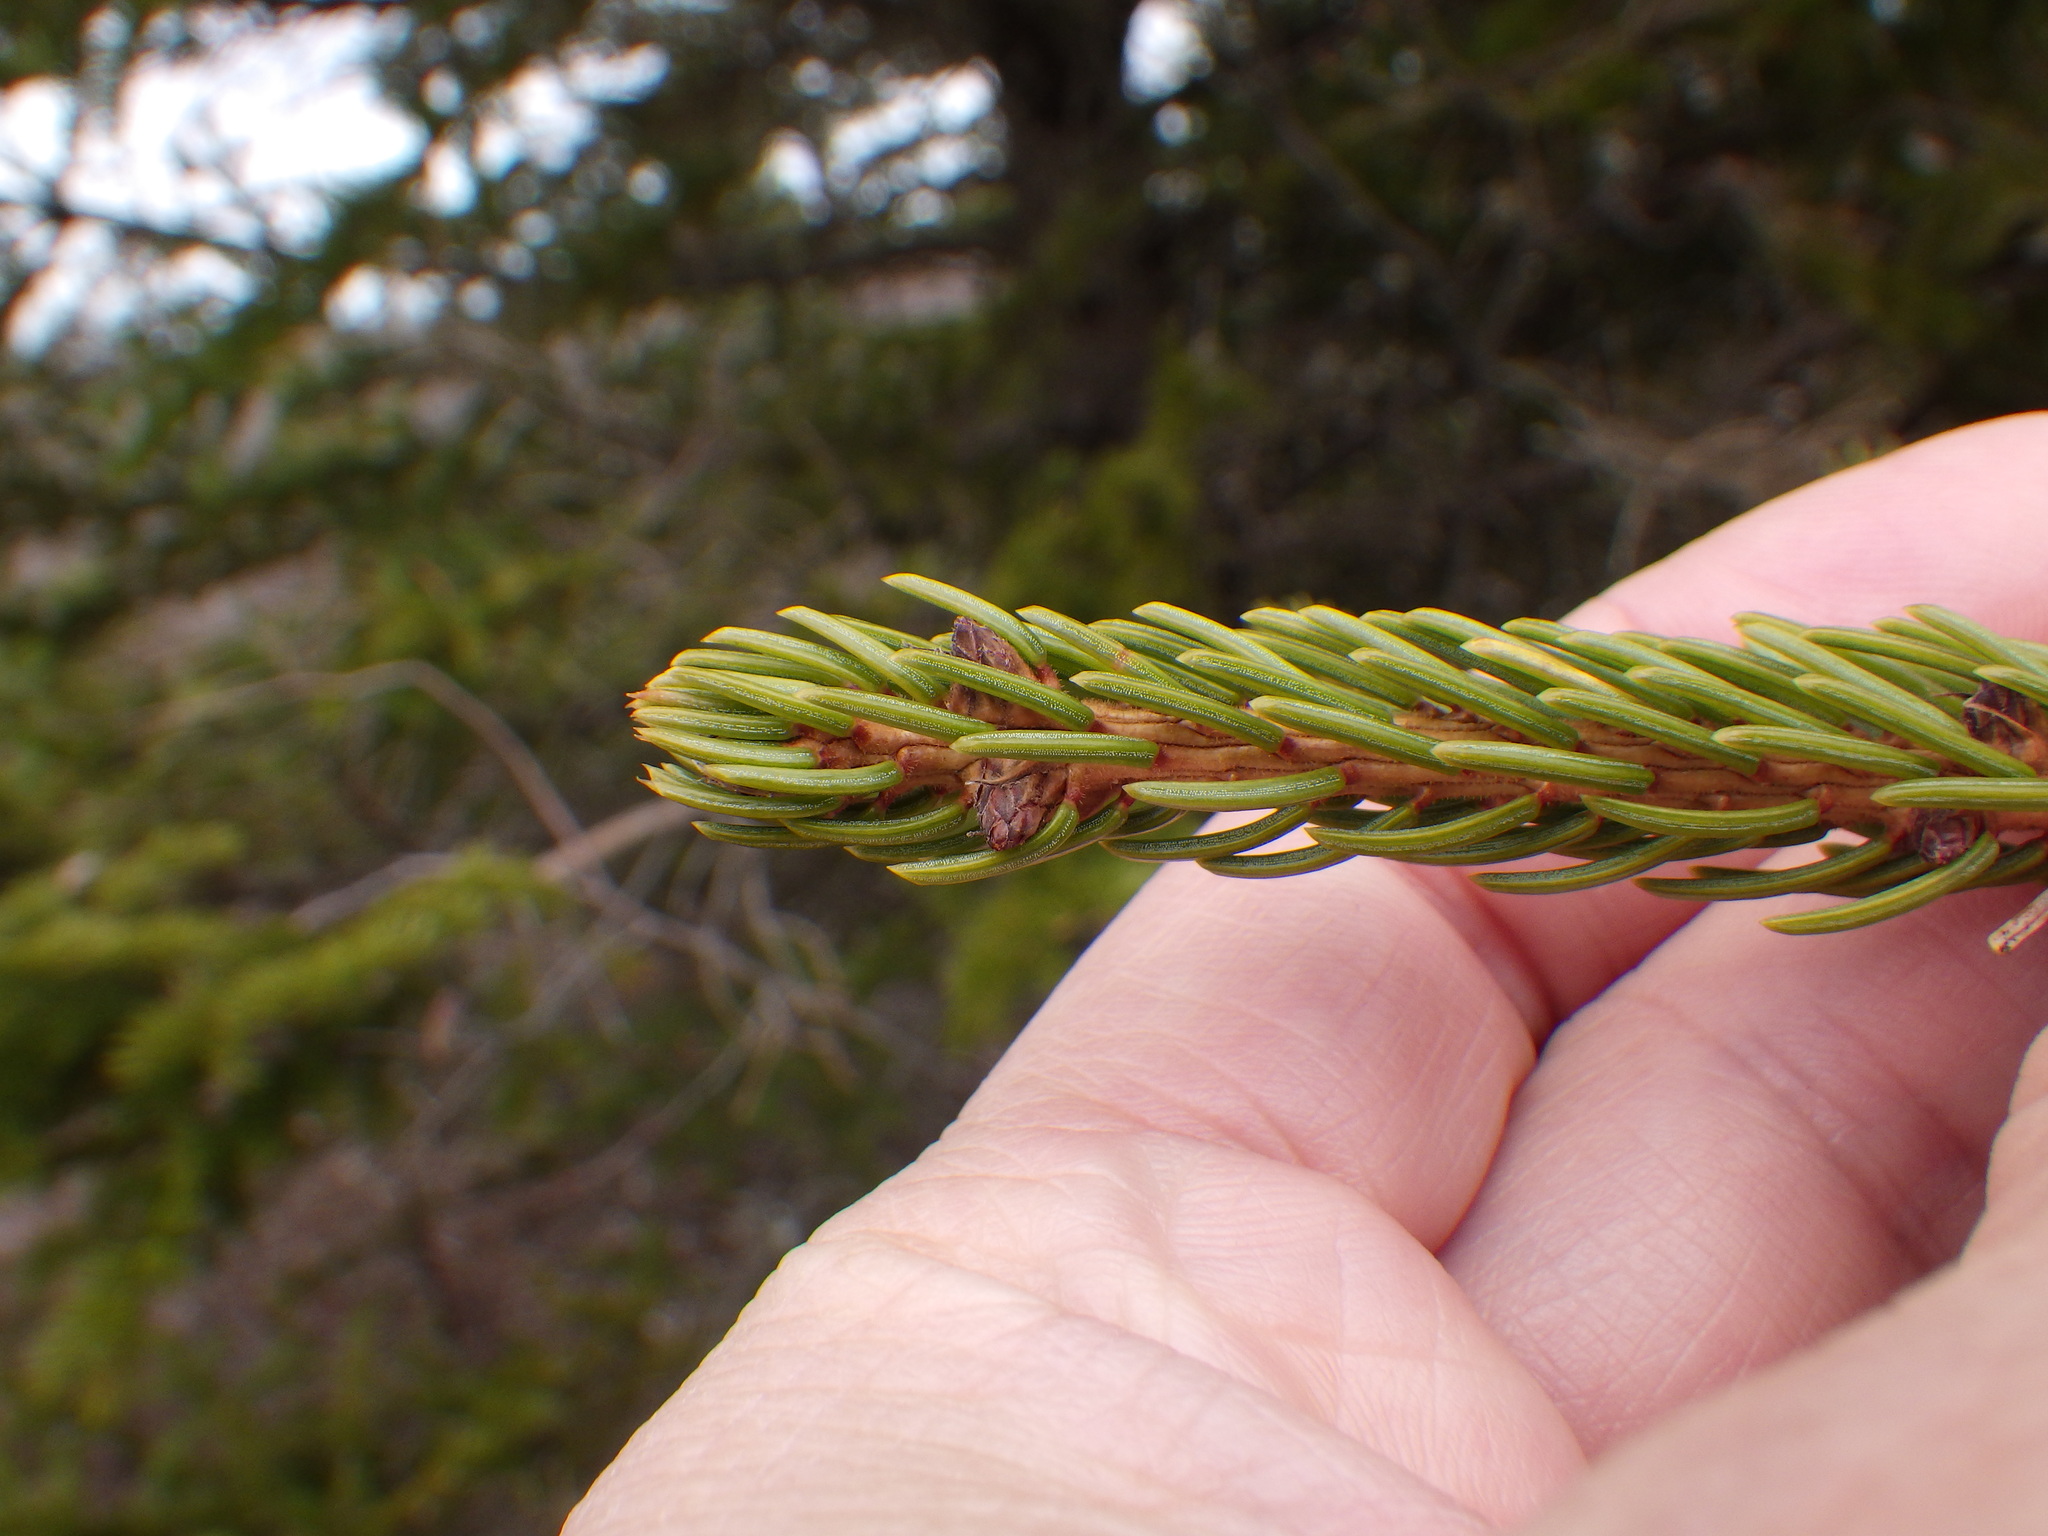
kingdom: Plantae
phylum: Tracheophyta
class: Pinopsida
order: Pinales
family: Pinaceae
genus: Picea
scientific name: Picea rubens
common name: Red spruce
